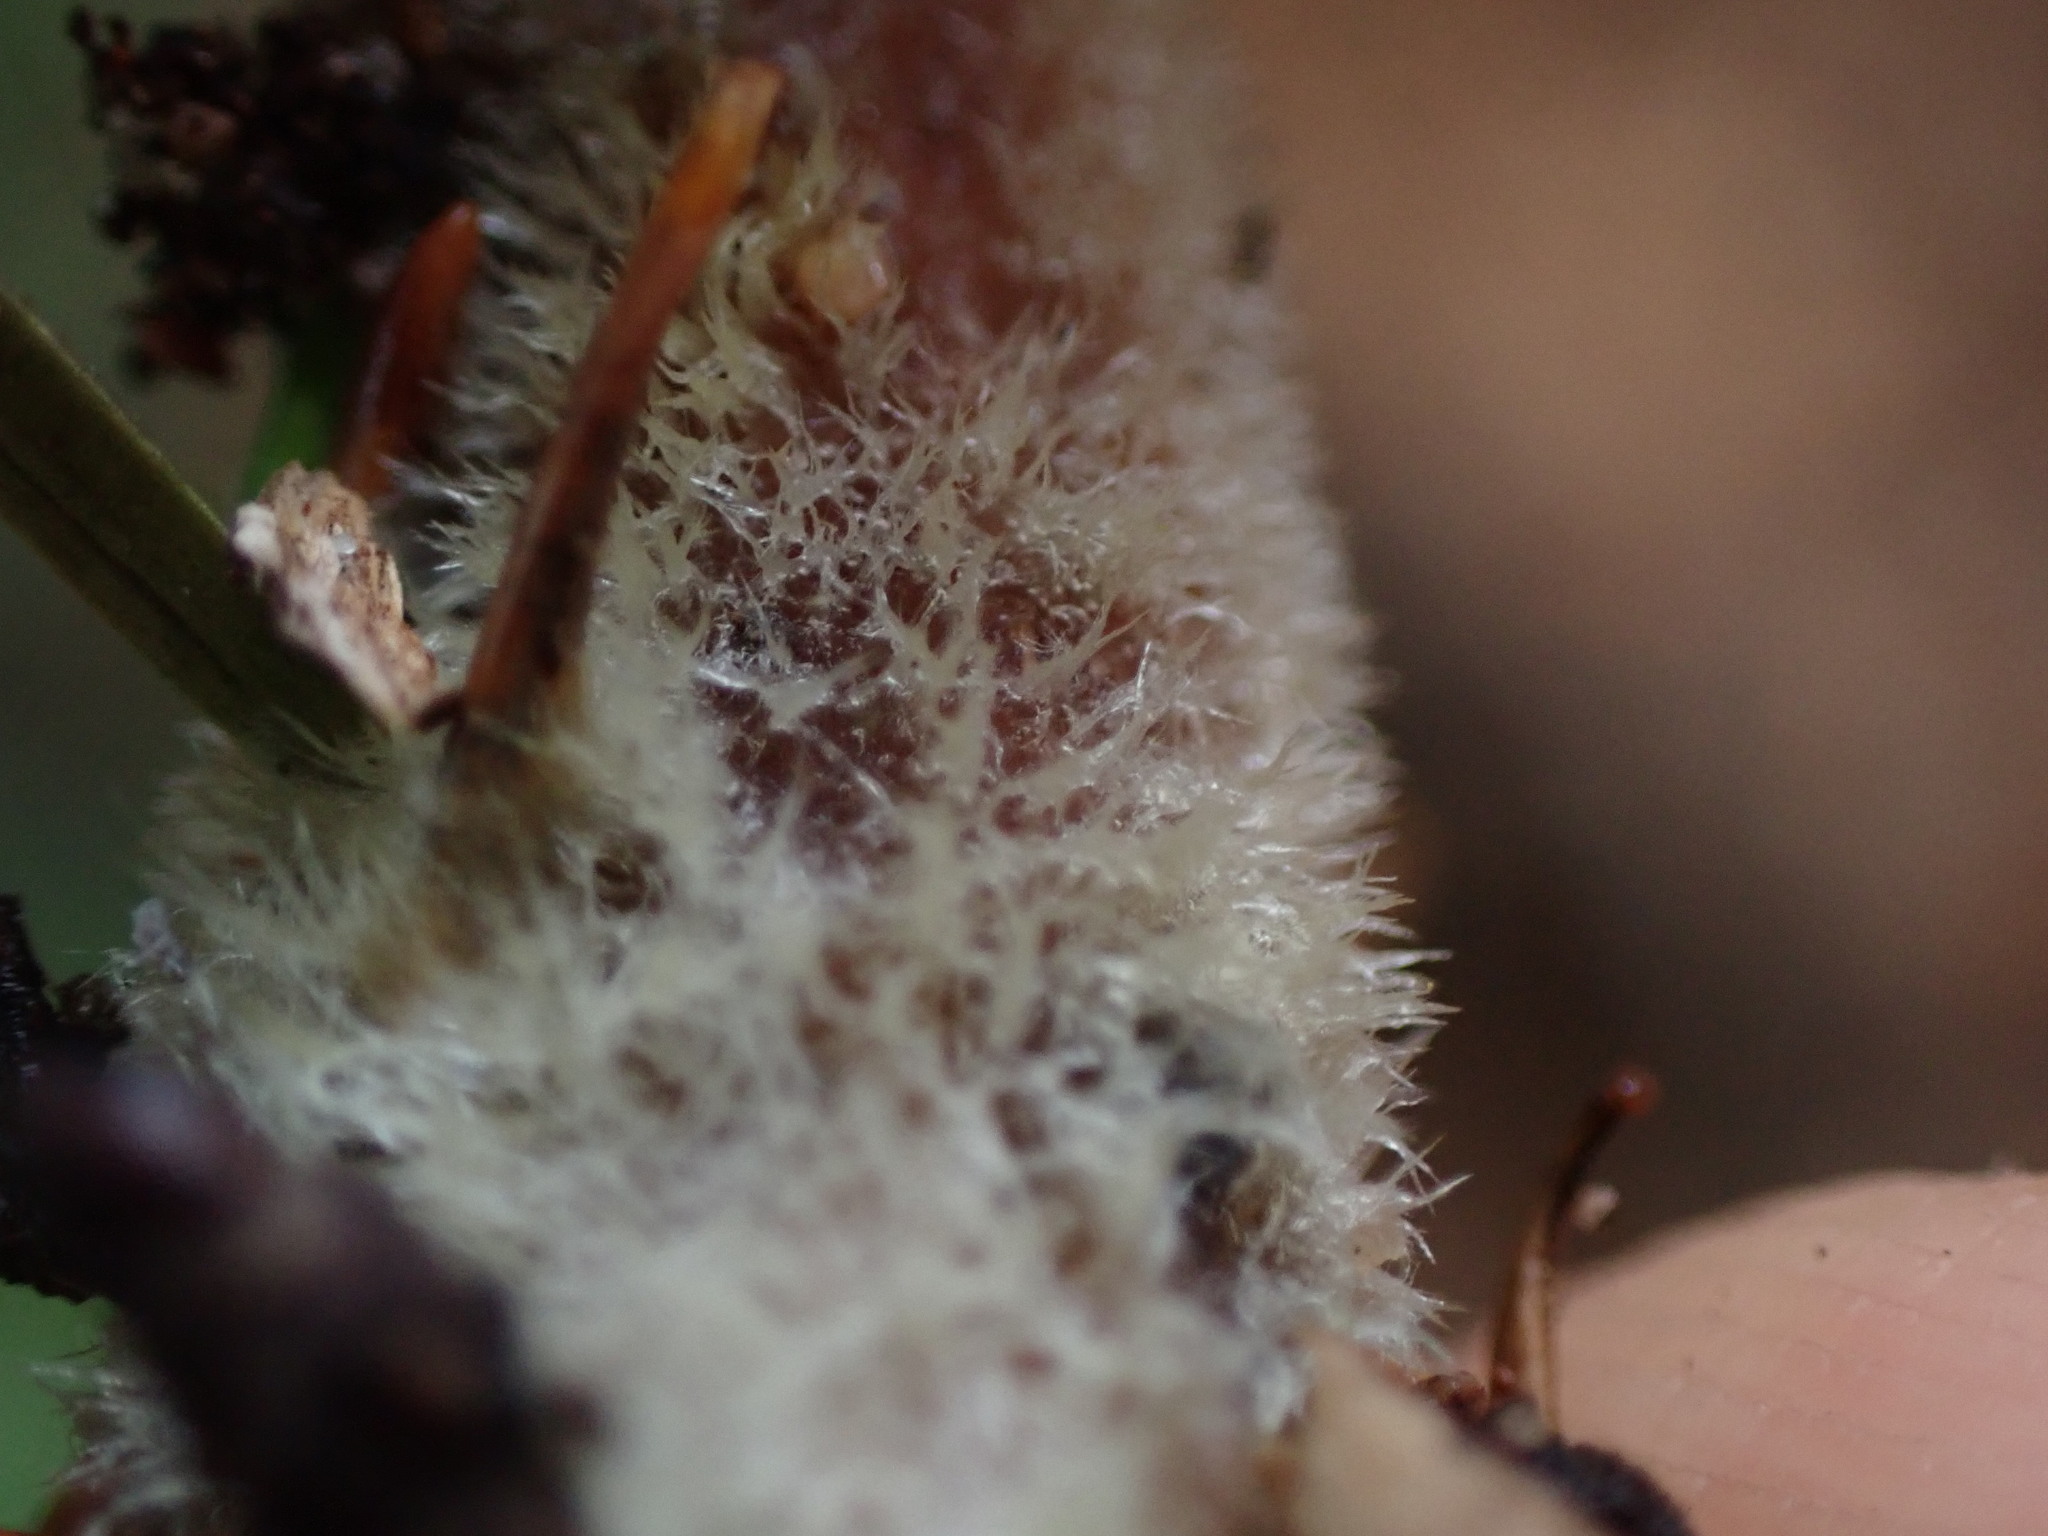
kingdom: Fungi
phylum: Basidiomycota
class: Agaricomycetes
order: Agaricales
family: Omphalotaceae
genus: Collybiopsis
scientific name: Collybiopsis peronata
